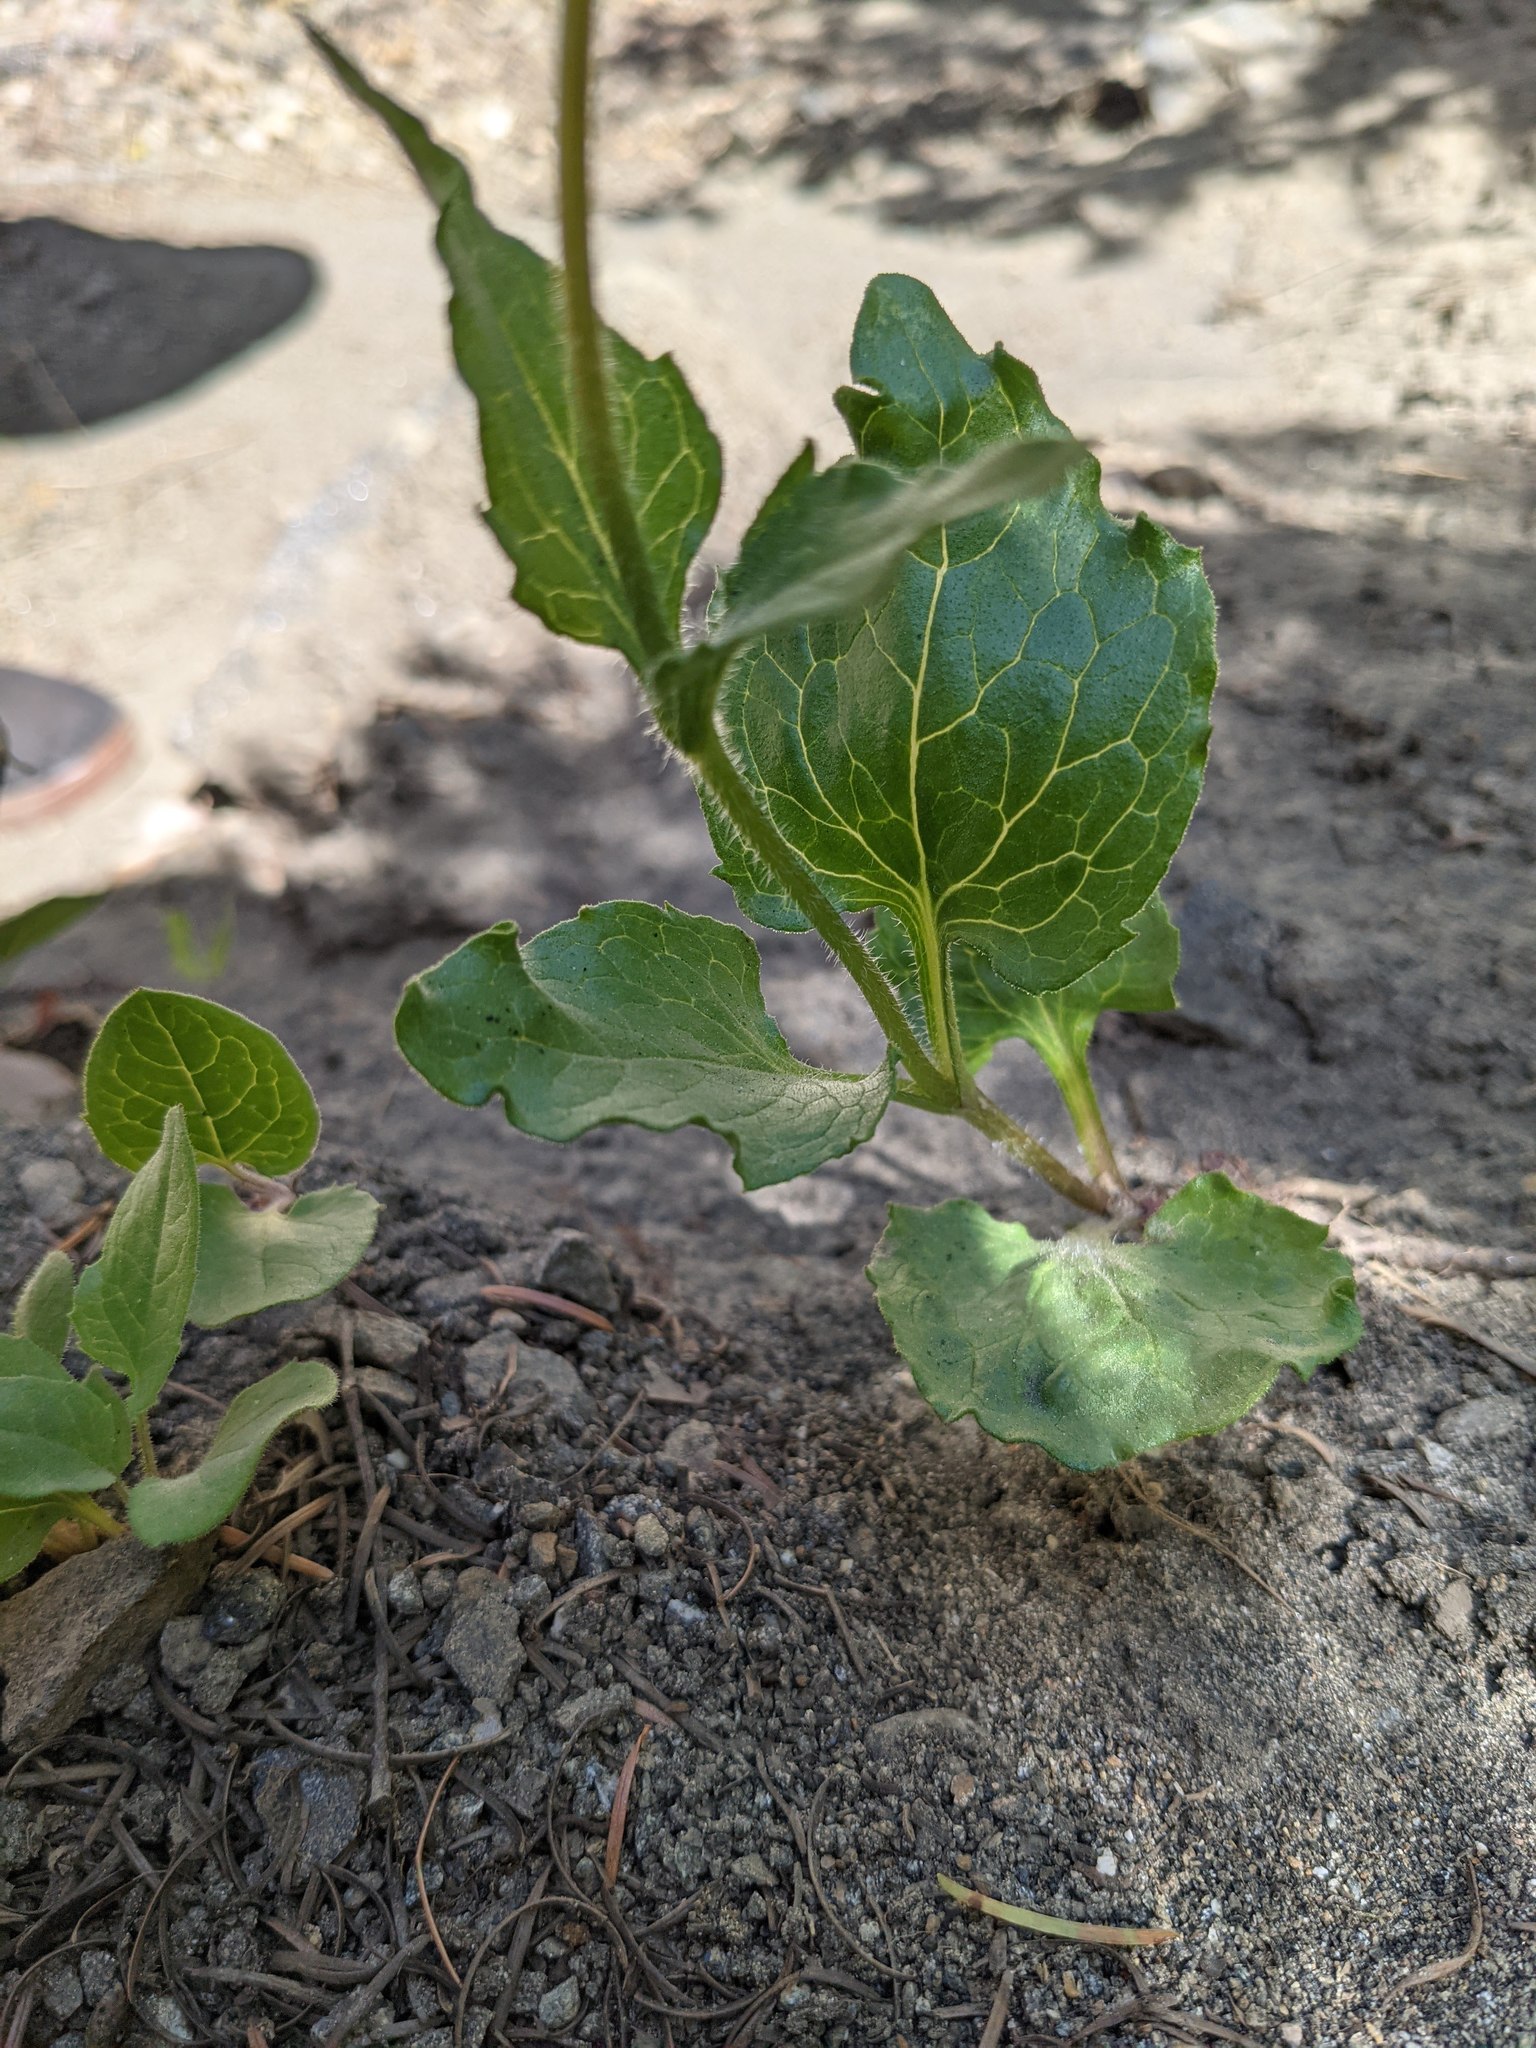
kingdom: Plantae
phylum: Tracheophyta
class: Magnoliopsida
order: Asterales
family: Asteraceae
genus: Arnica
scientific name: Arnica discoidea
